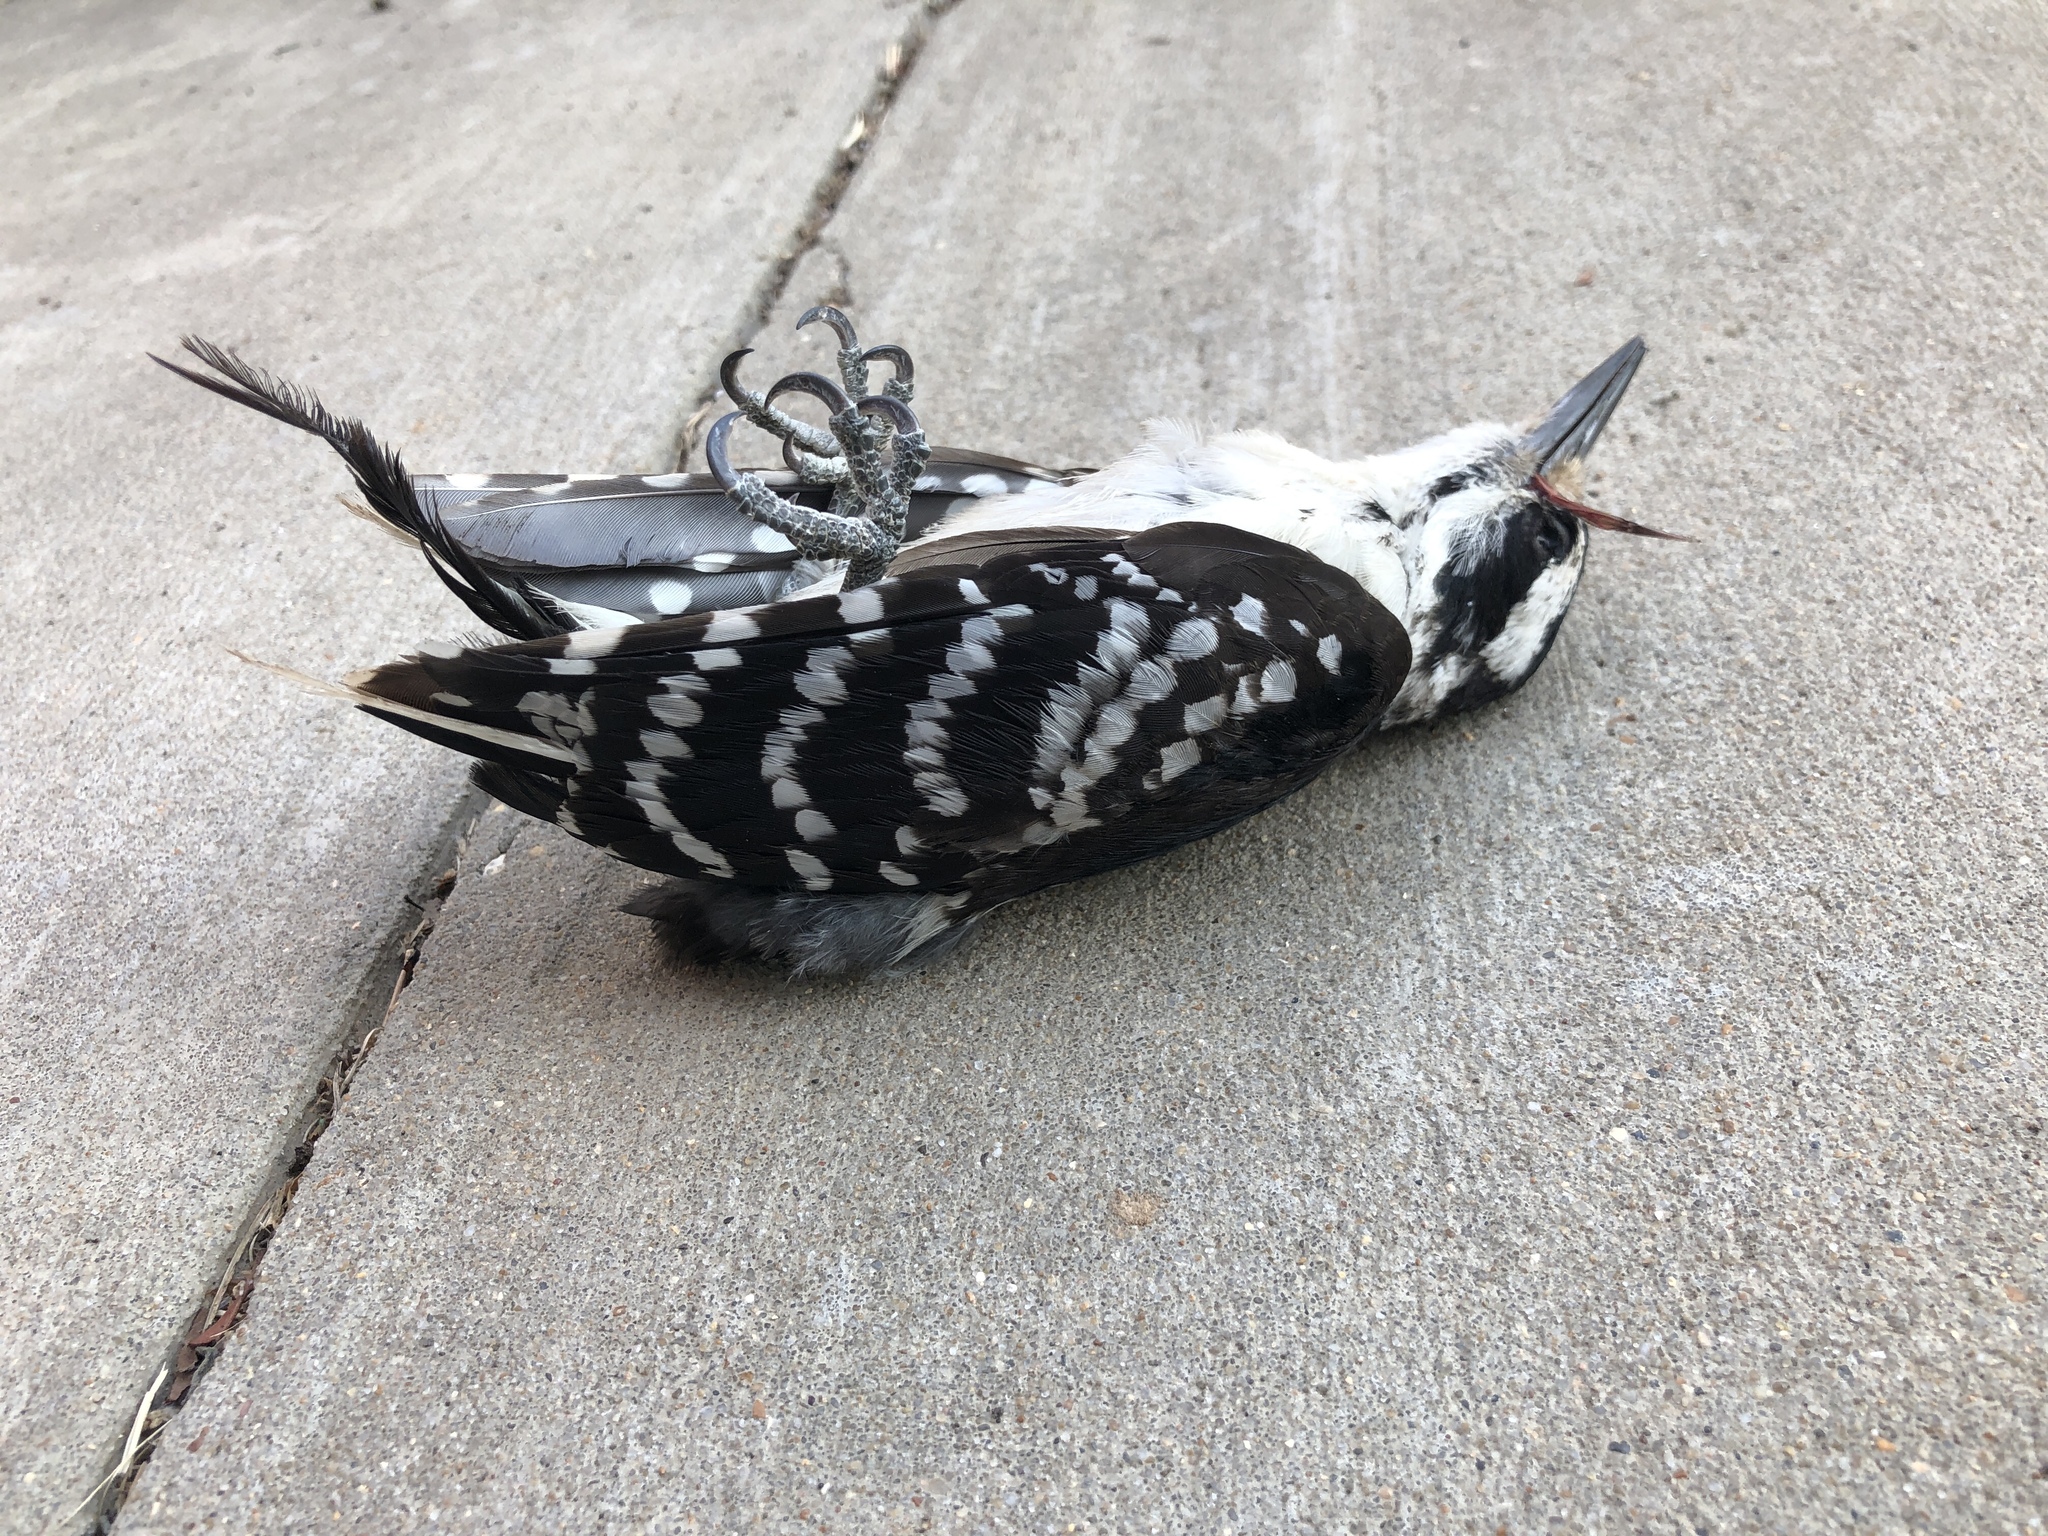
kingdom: Animalia
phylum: Chordata
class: Aves
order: Piciformes
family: Picidae
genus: Leuconotopicus
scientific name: Leuconotopicus villosus
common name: Hairy woodpecker
